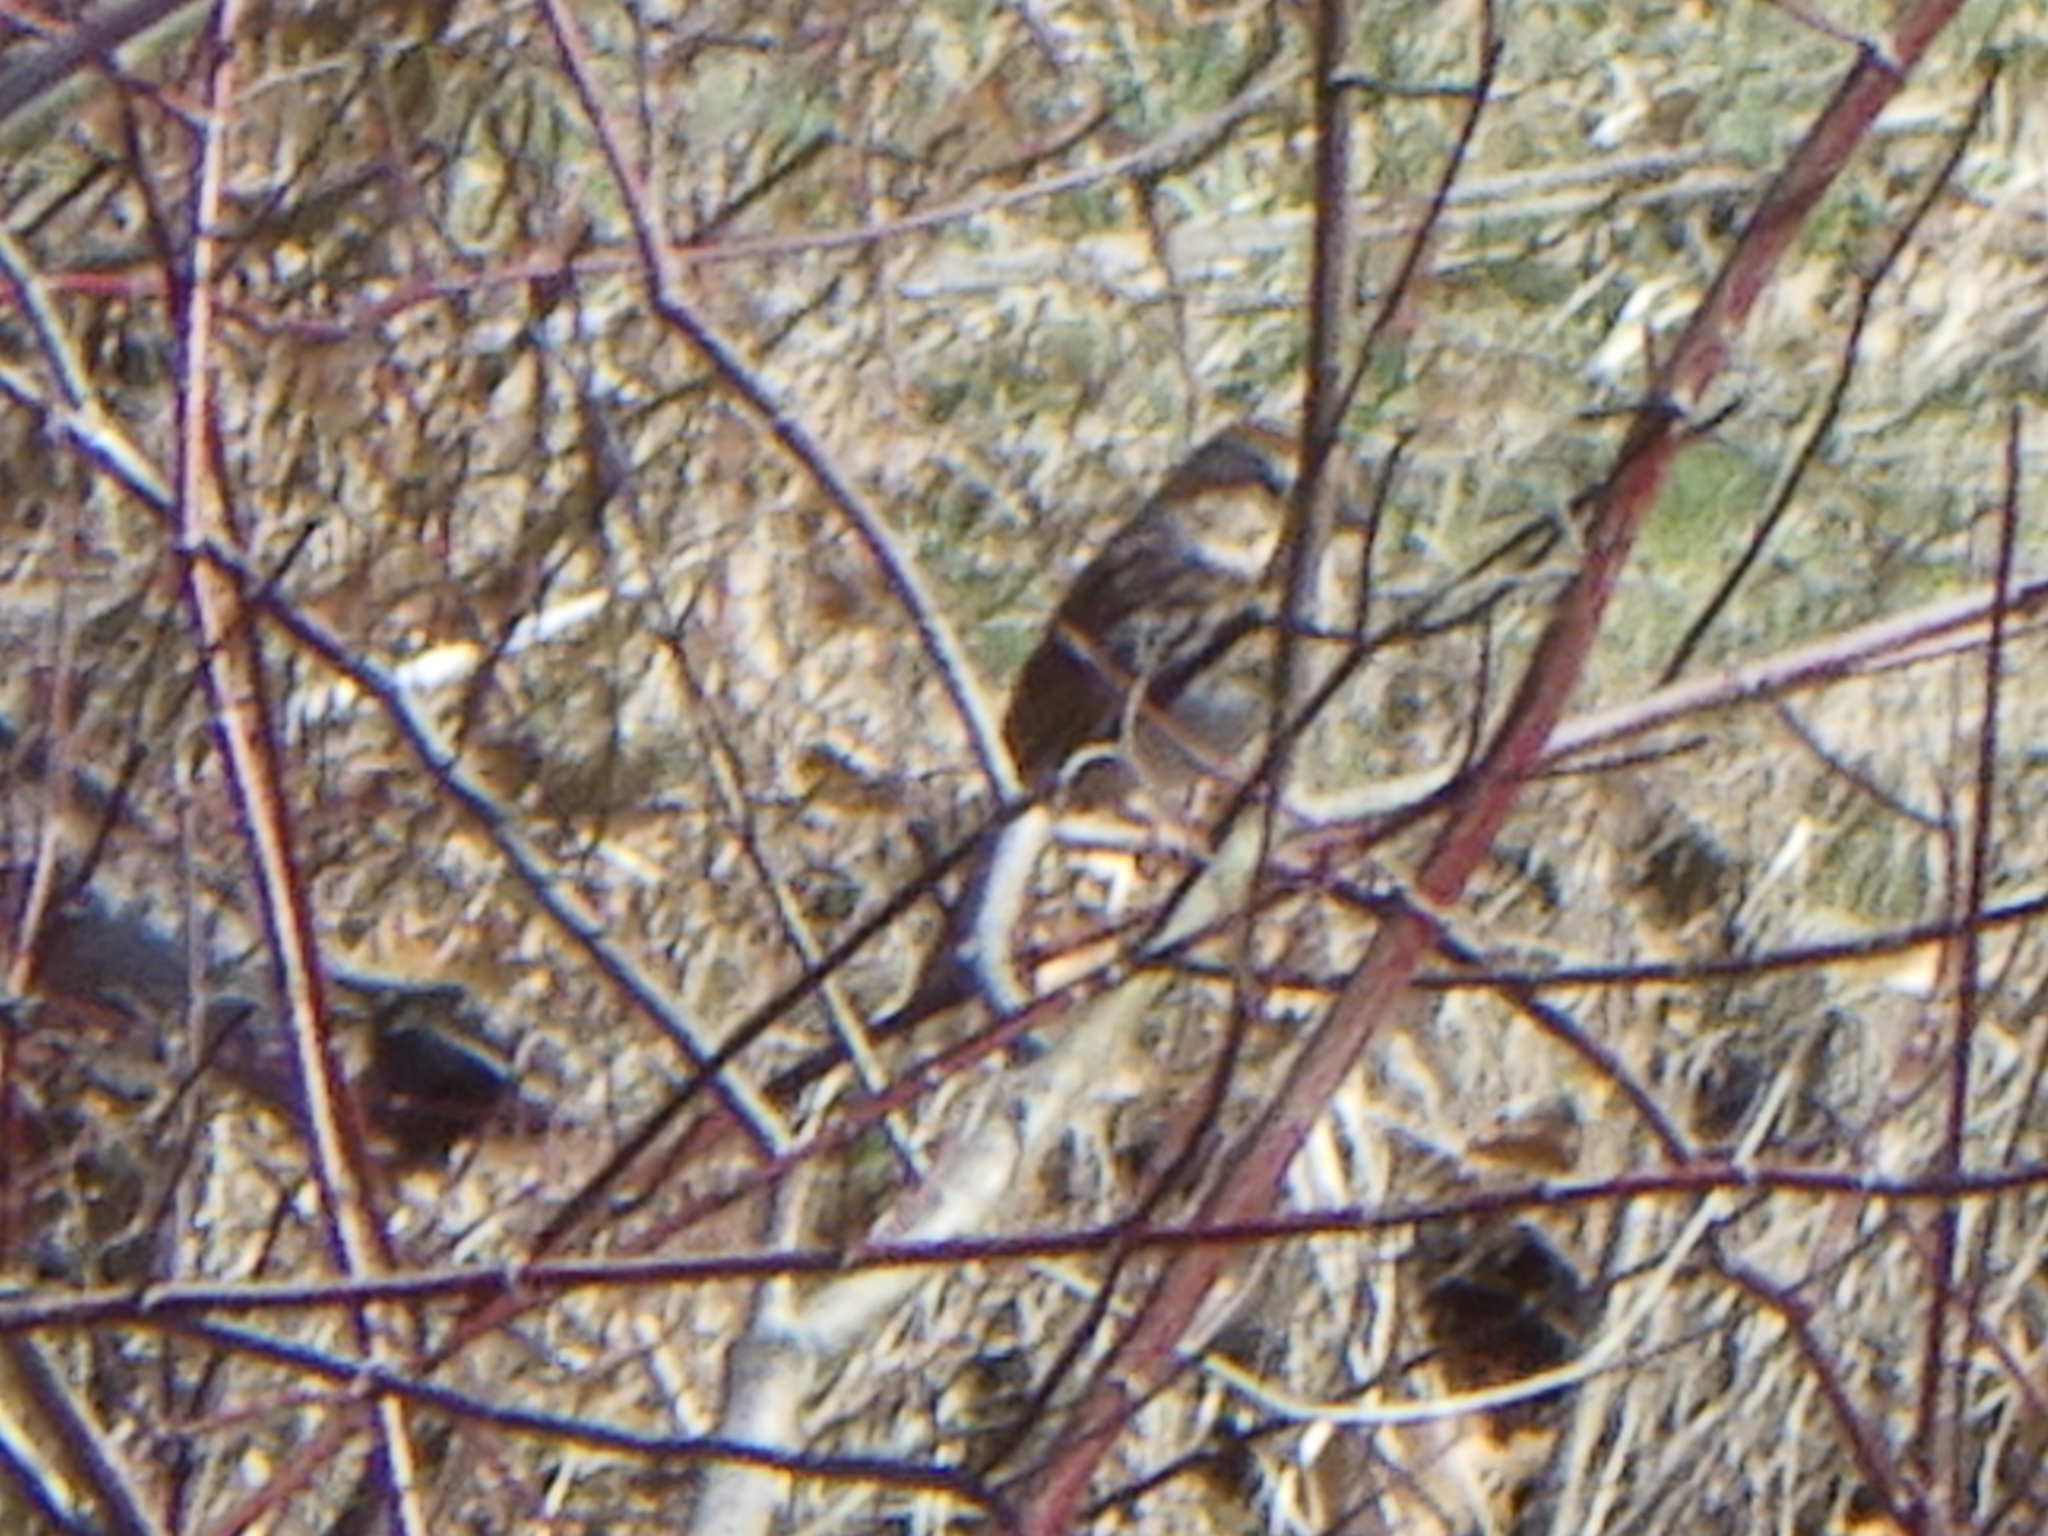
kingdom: Animalia
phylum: Chordata
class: Aves
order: Passeriformes
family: Passerellidae
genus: Melospiza
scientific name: Melospiza melodia
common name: Song sparrow
